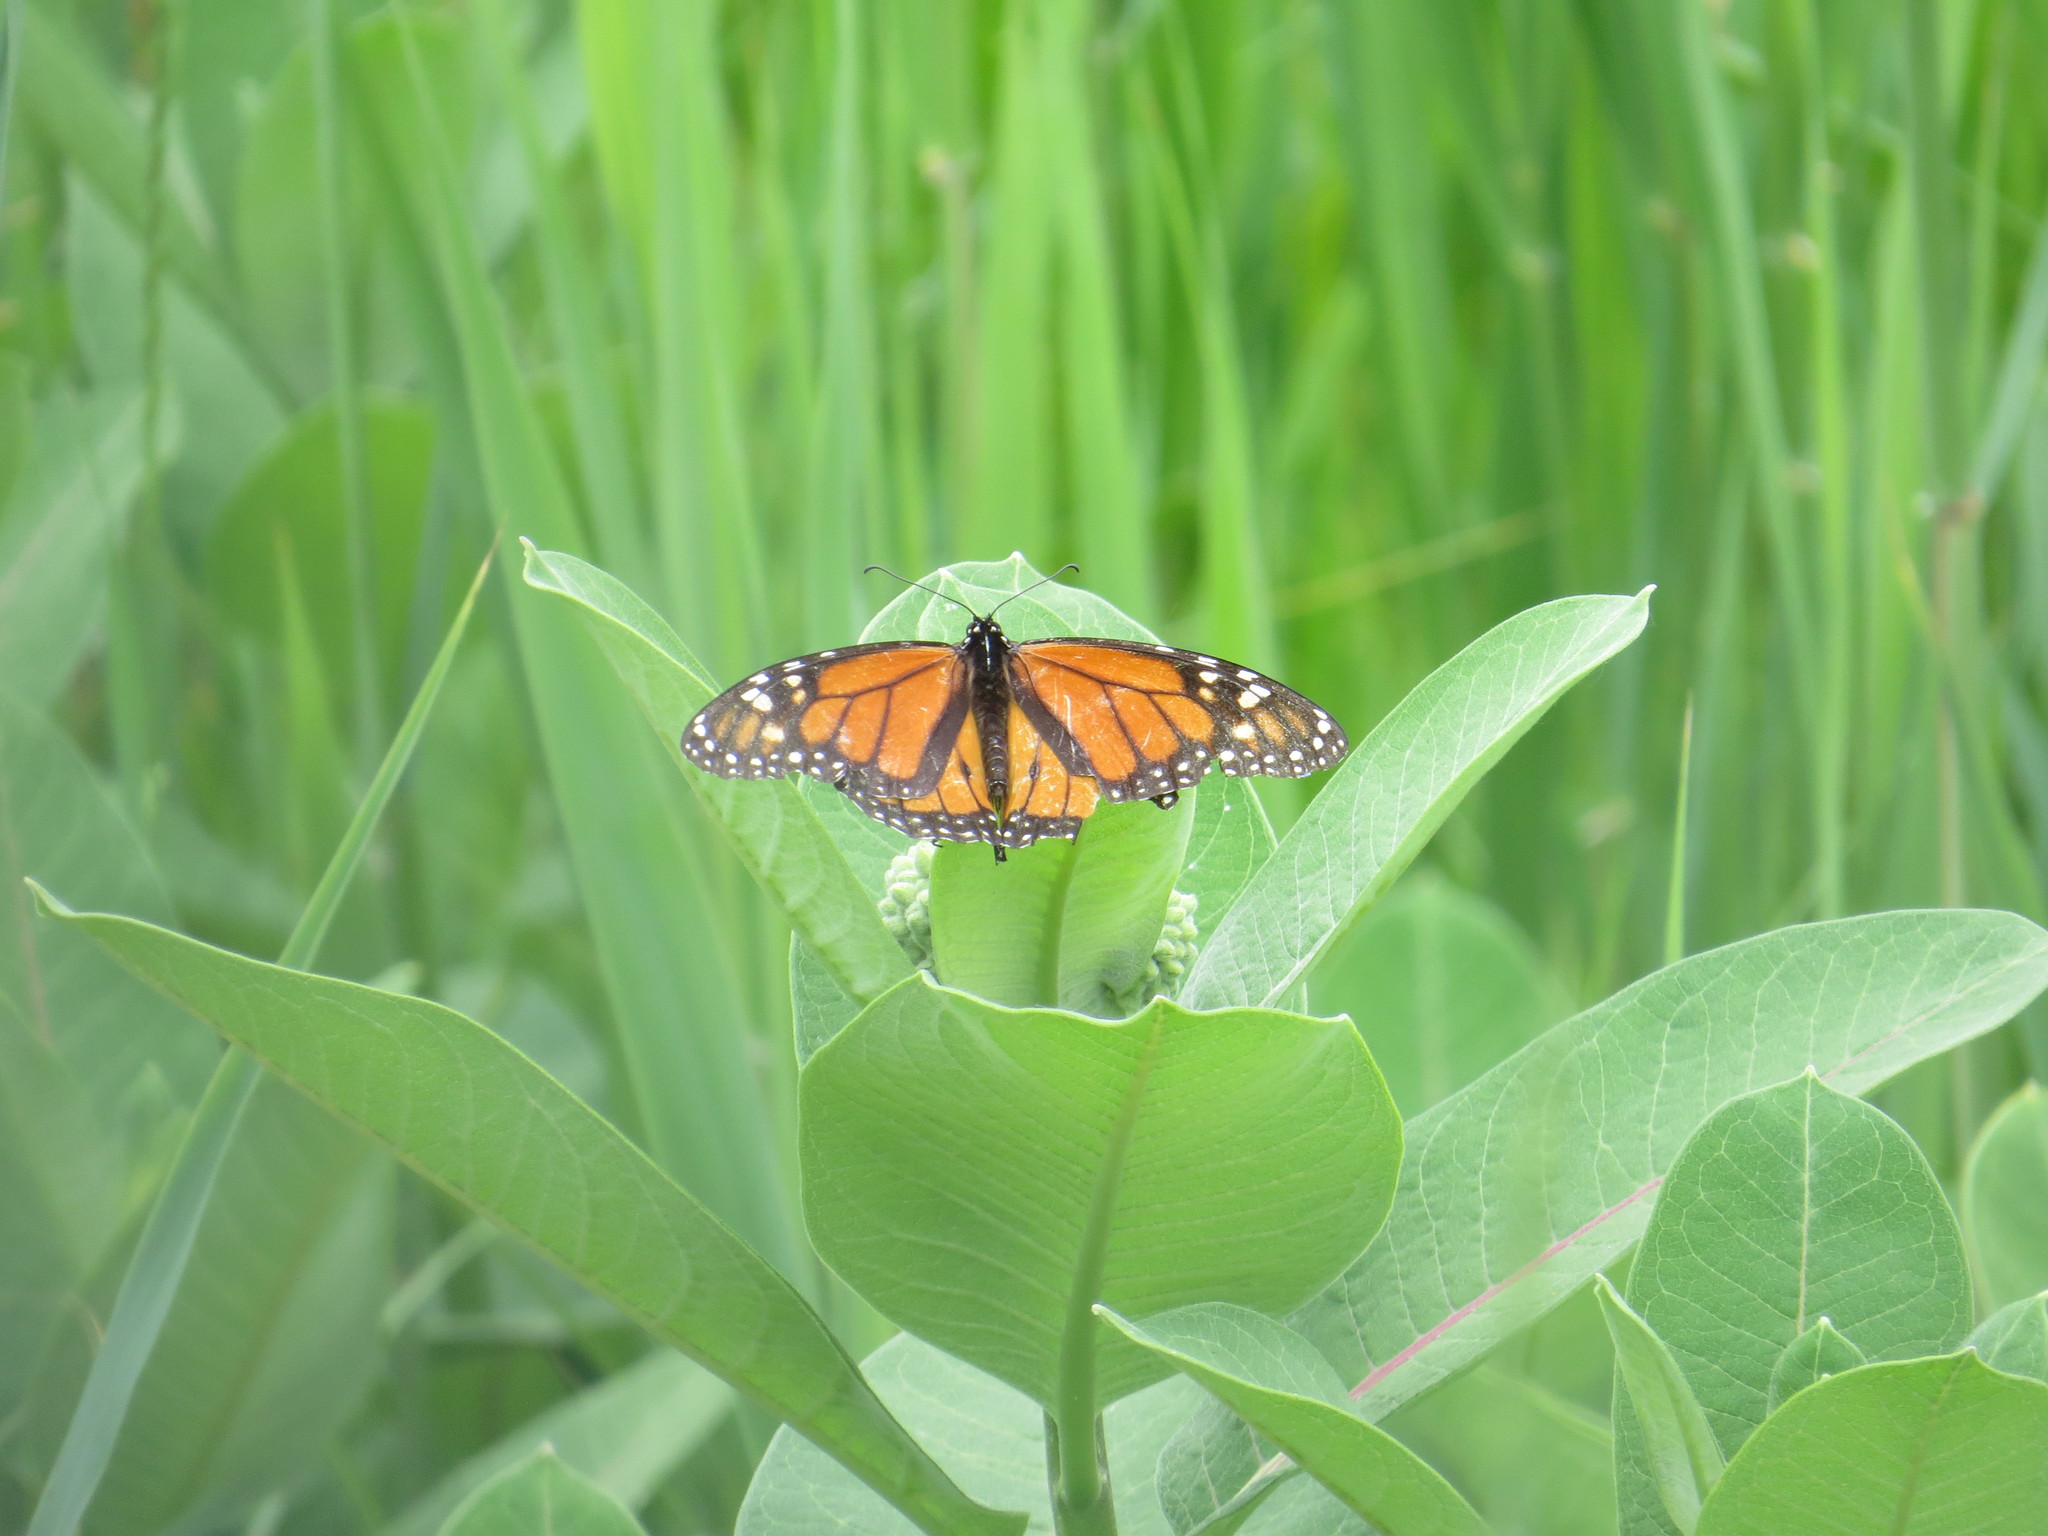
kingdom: Animalia
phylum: Arthropoda
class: Insecta
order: Lepidoptera
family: Nymphalidae
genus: Danaus
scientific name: Danaus plexippus
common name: Monarch
